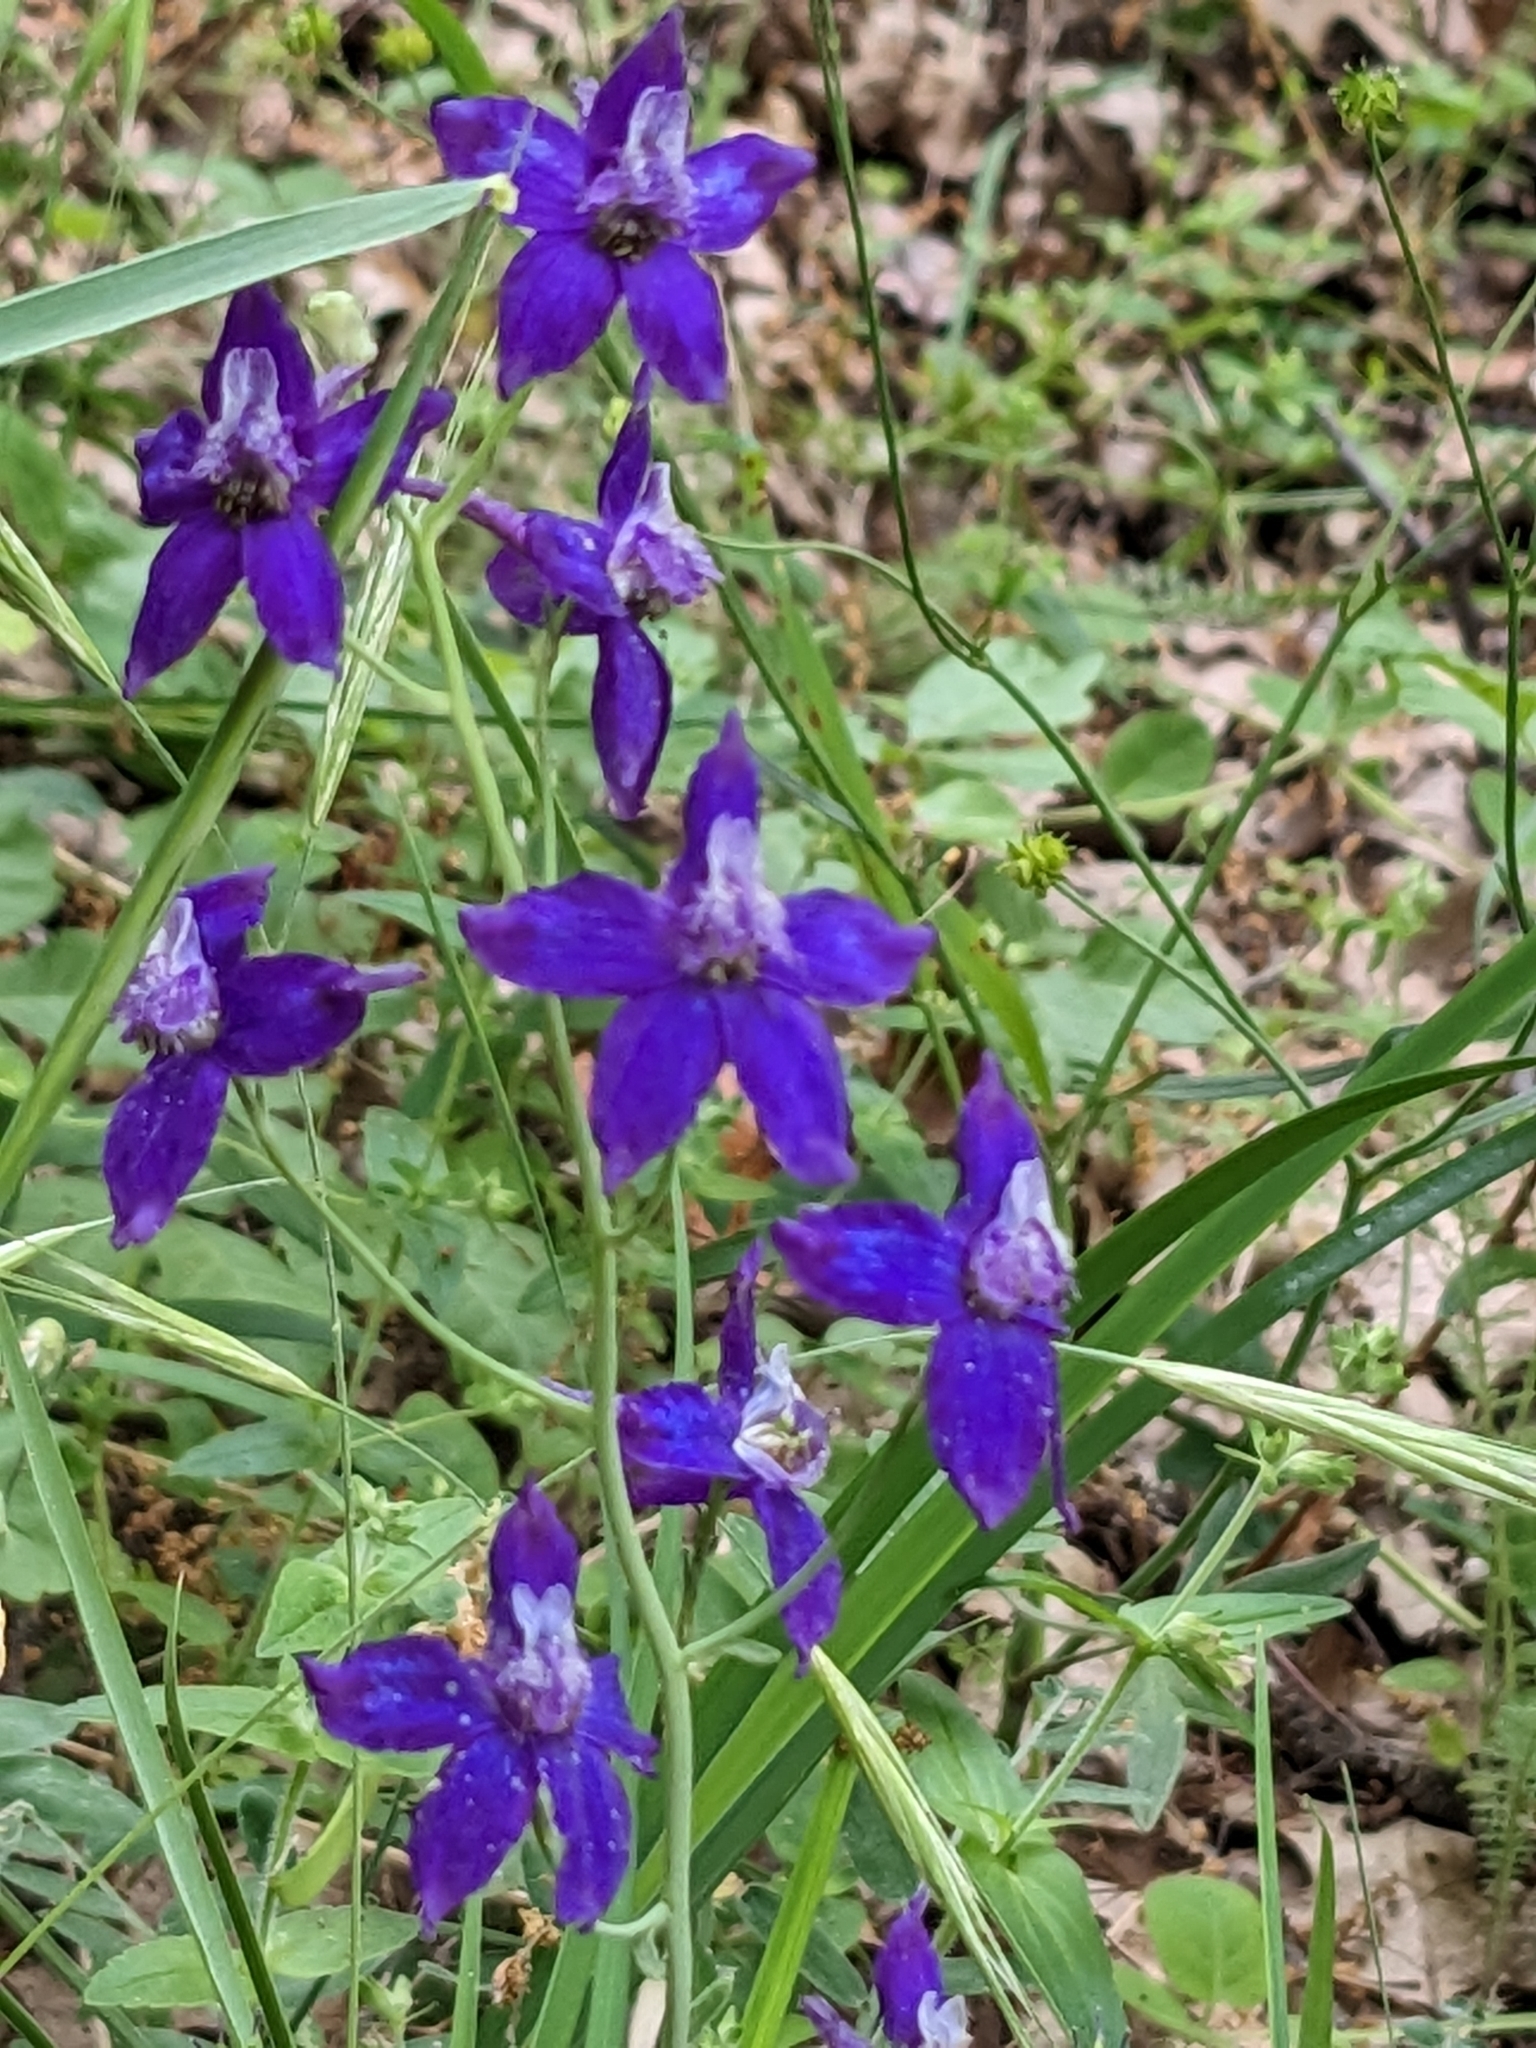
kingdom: Plantae
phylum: Tracheophyta
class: Magnoliopsida
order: Ranunculales
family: Ranunculaceae
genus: Delphinium
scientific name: Delphinium patens
